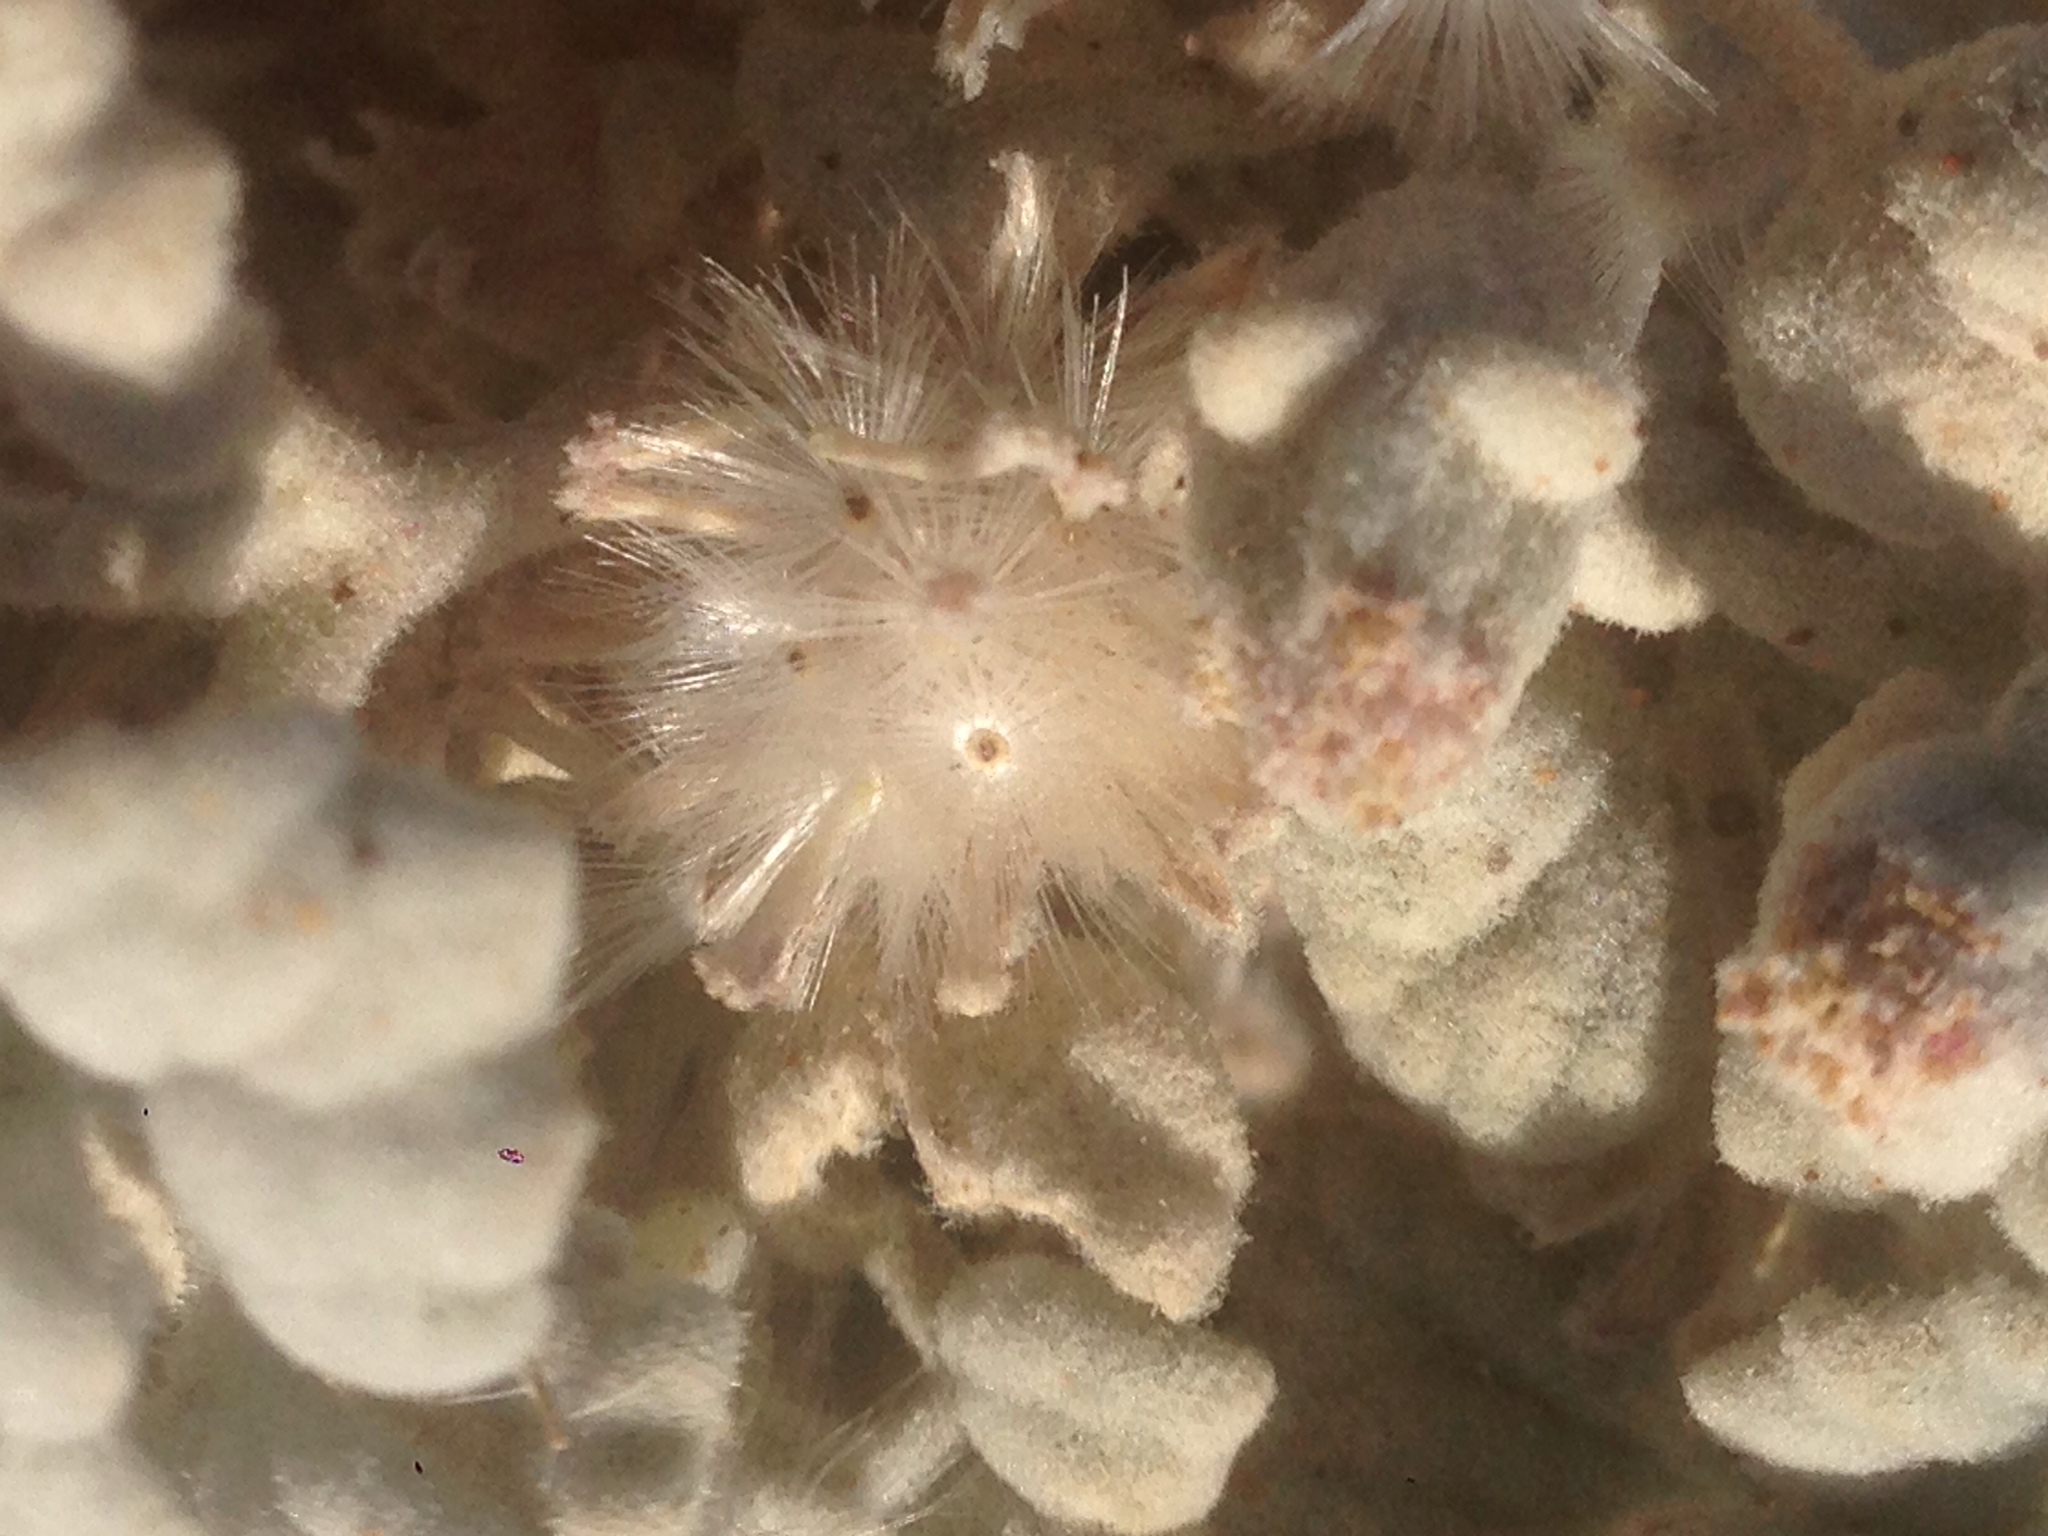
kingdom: Plantae
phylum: Tracheophyta
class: Magnoliopsida
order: Asterales
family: Asteraceae
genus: Psathyrotes
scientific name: Psathyrotes ramosissima
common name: Turtleback
